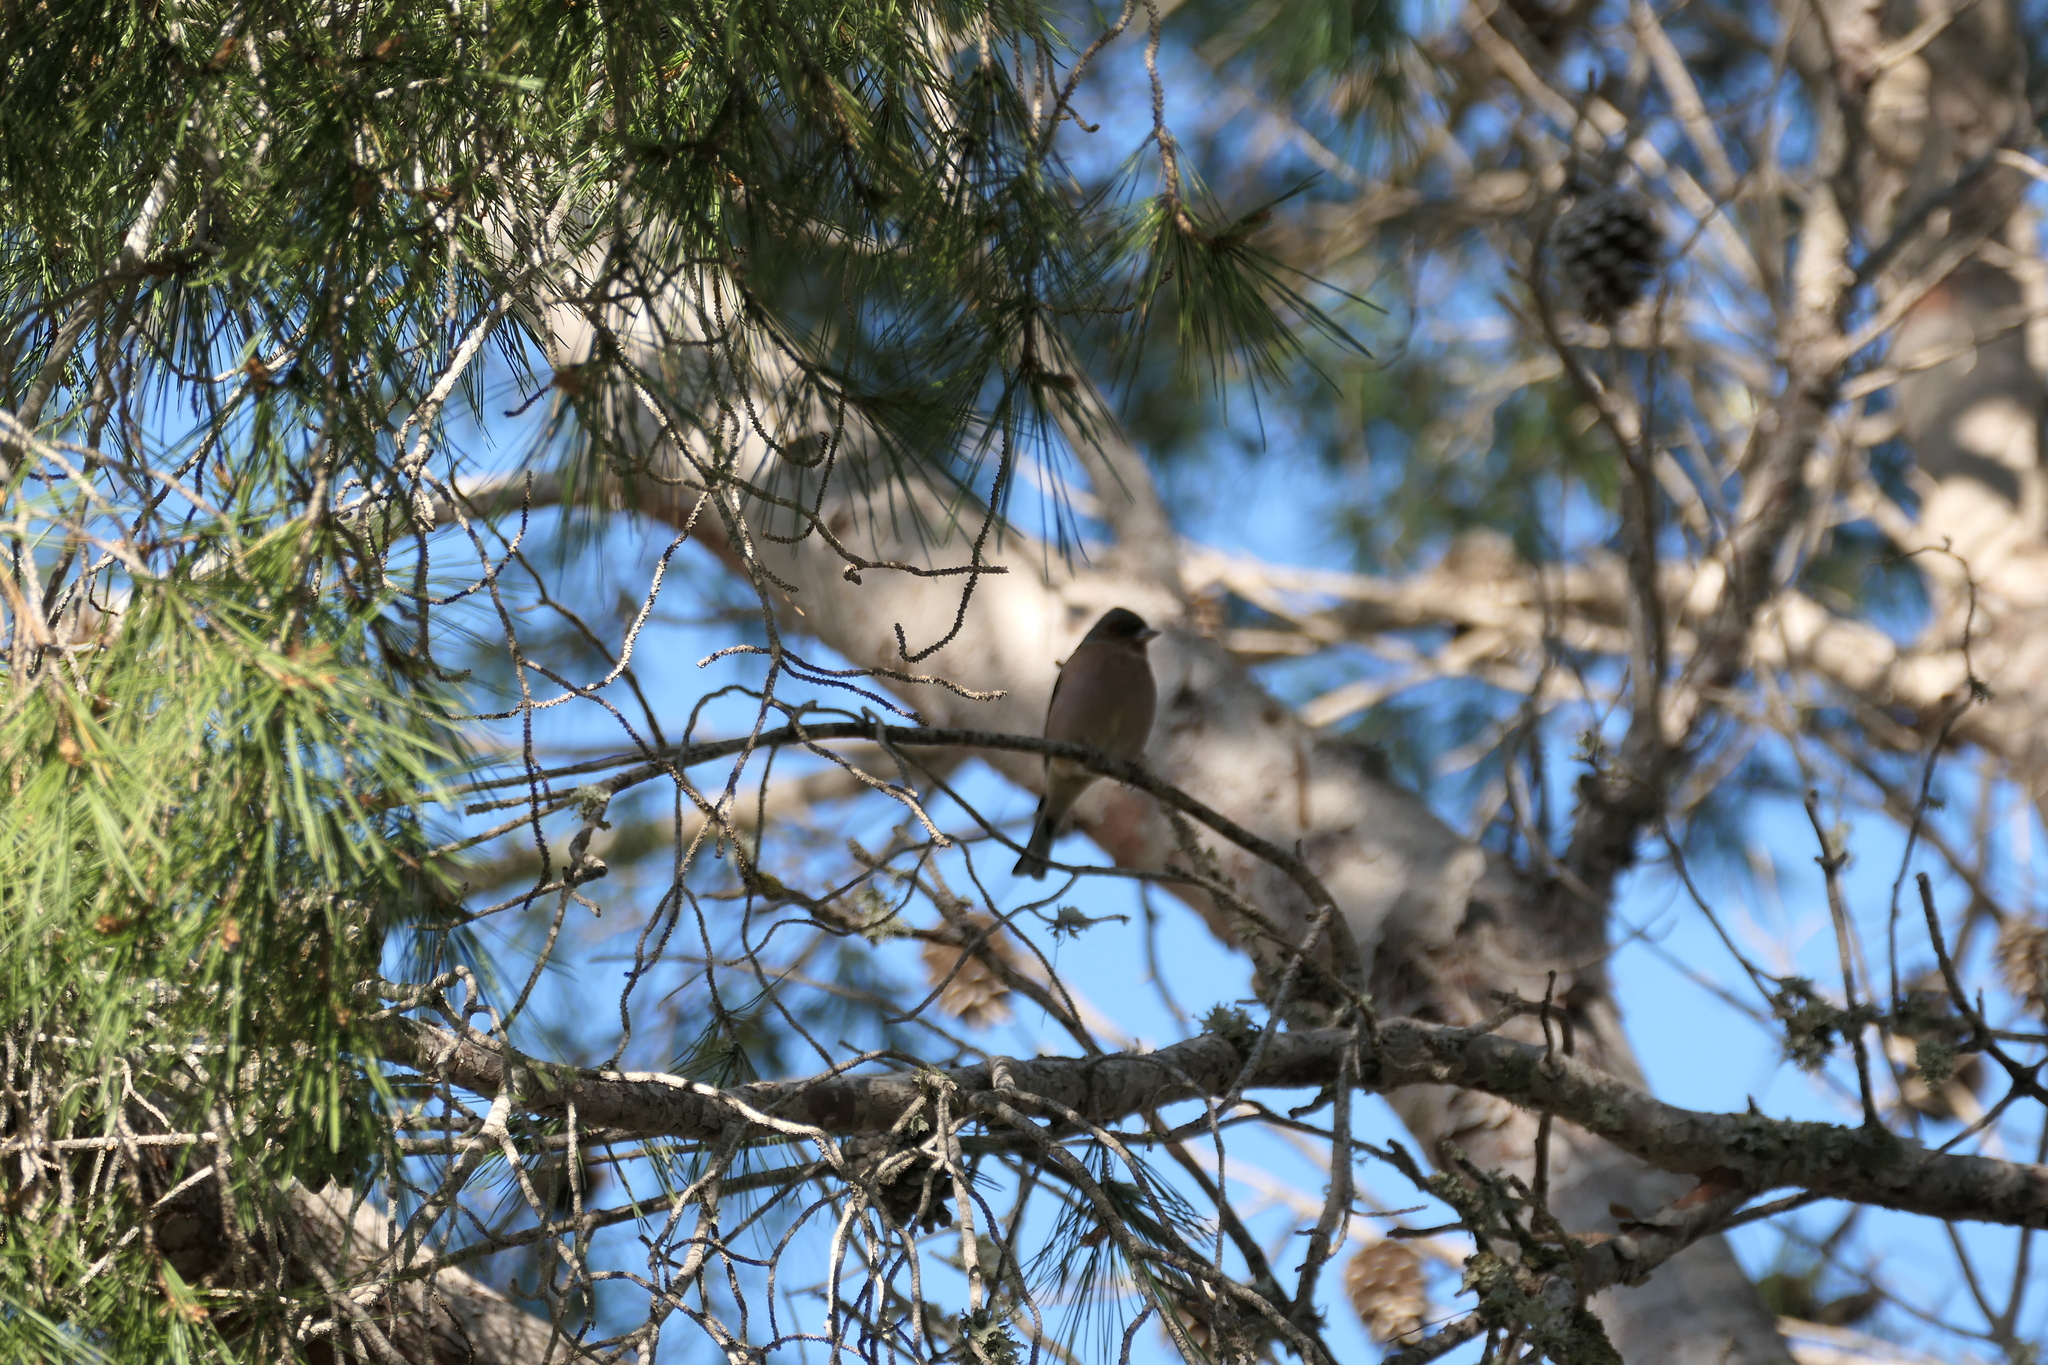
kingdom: Animalia
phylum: Chordata
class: Aves
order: Passeriformes
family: Fringillidae
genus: Fringilla
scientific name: Fringilla coelebs
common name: Common chaffinch
